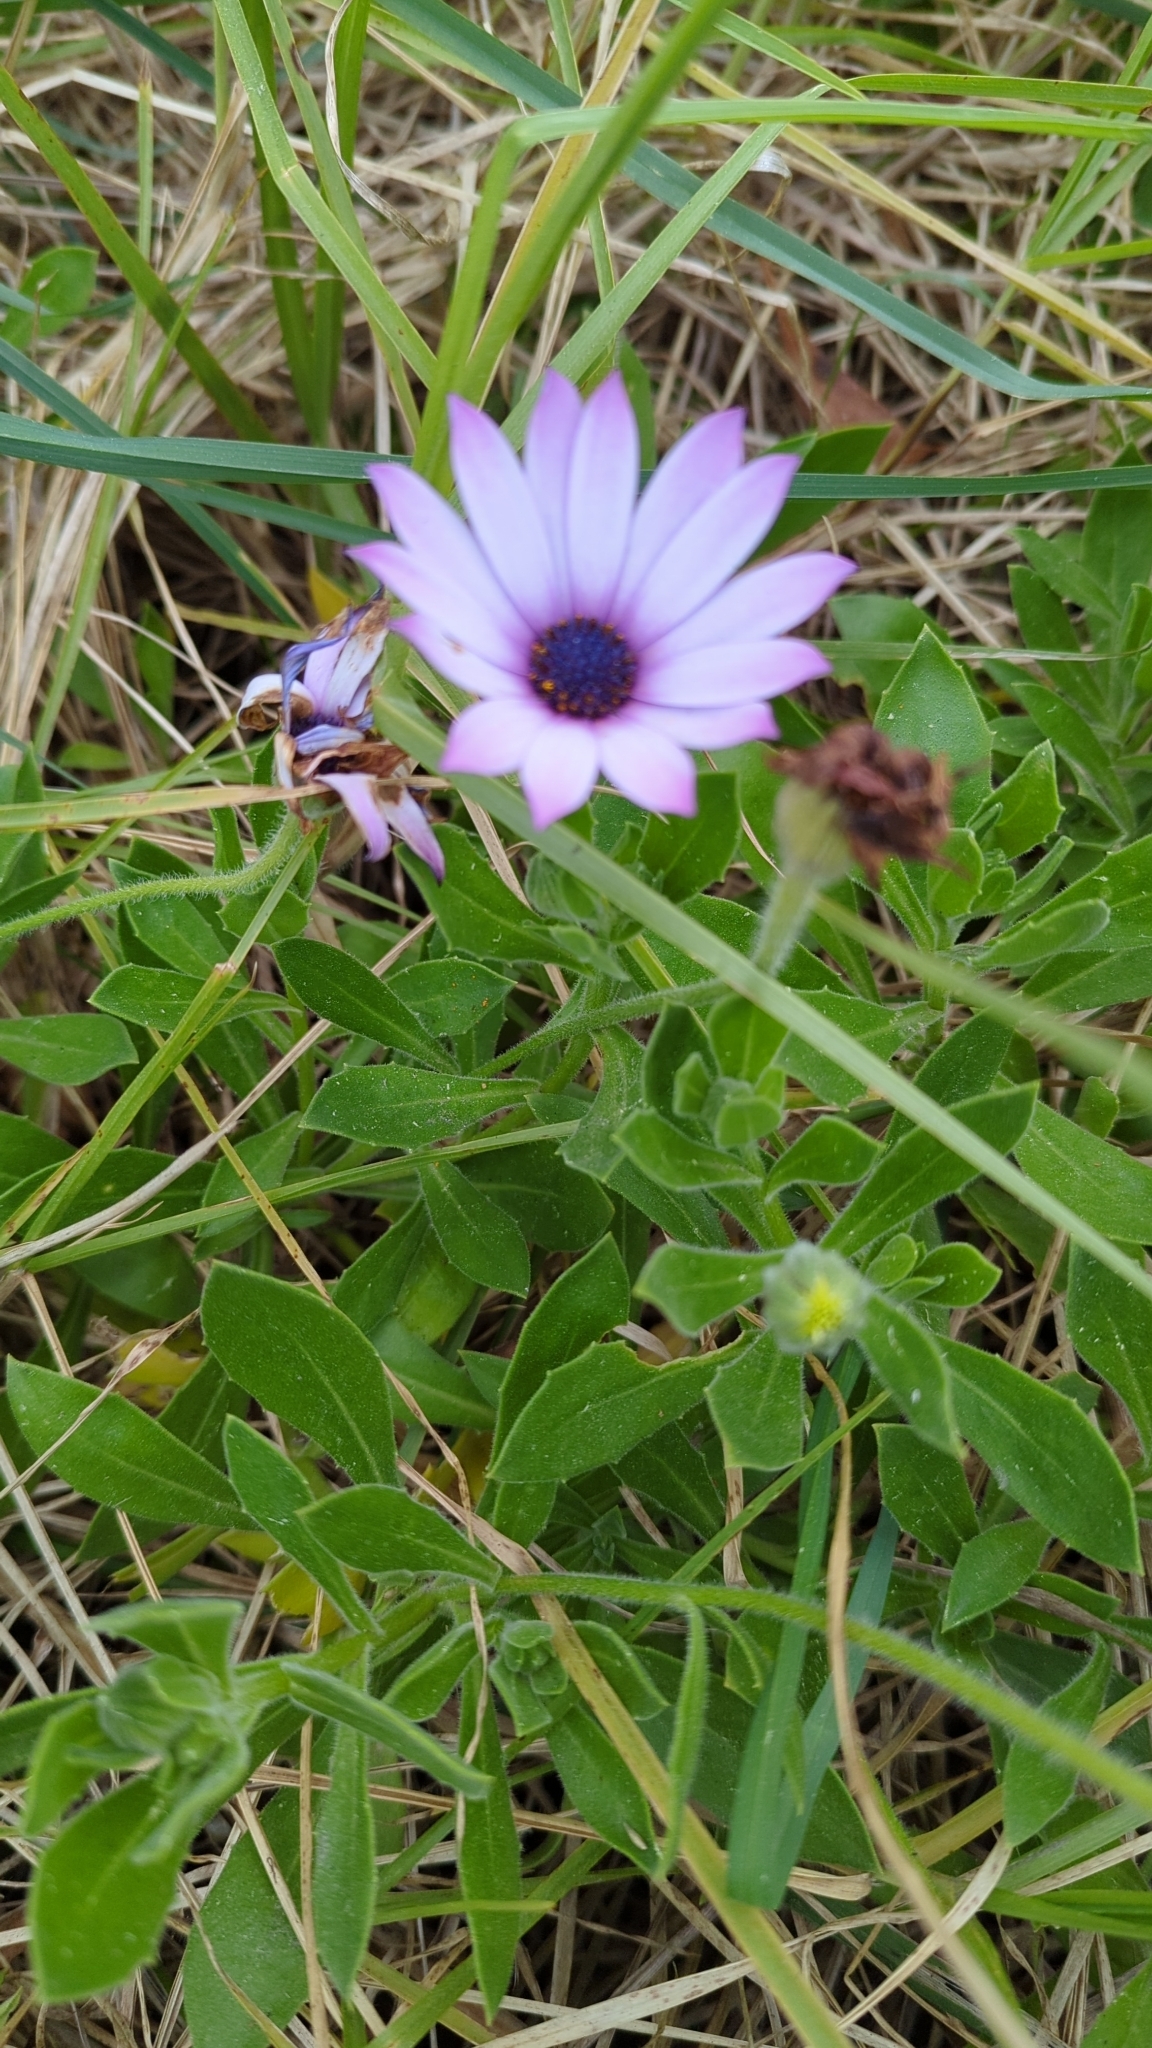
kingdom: Plantae
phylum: Tracheophyta
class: Magnoliopsida
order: Asterales
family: Asteraceae
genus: Dimorphotheca
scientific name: Dimorphotheca fruticosa
